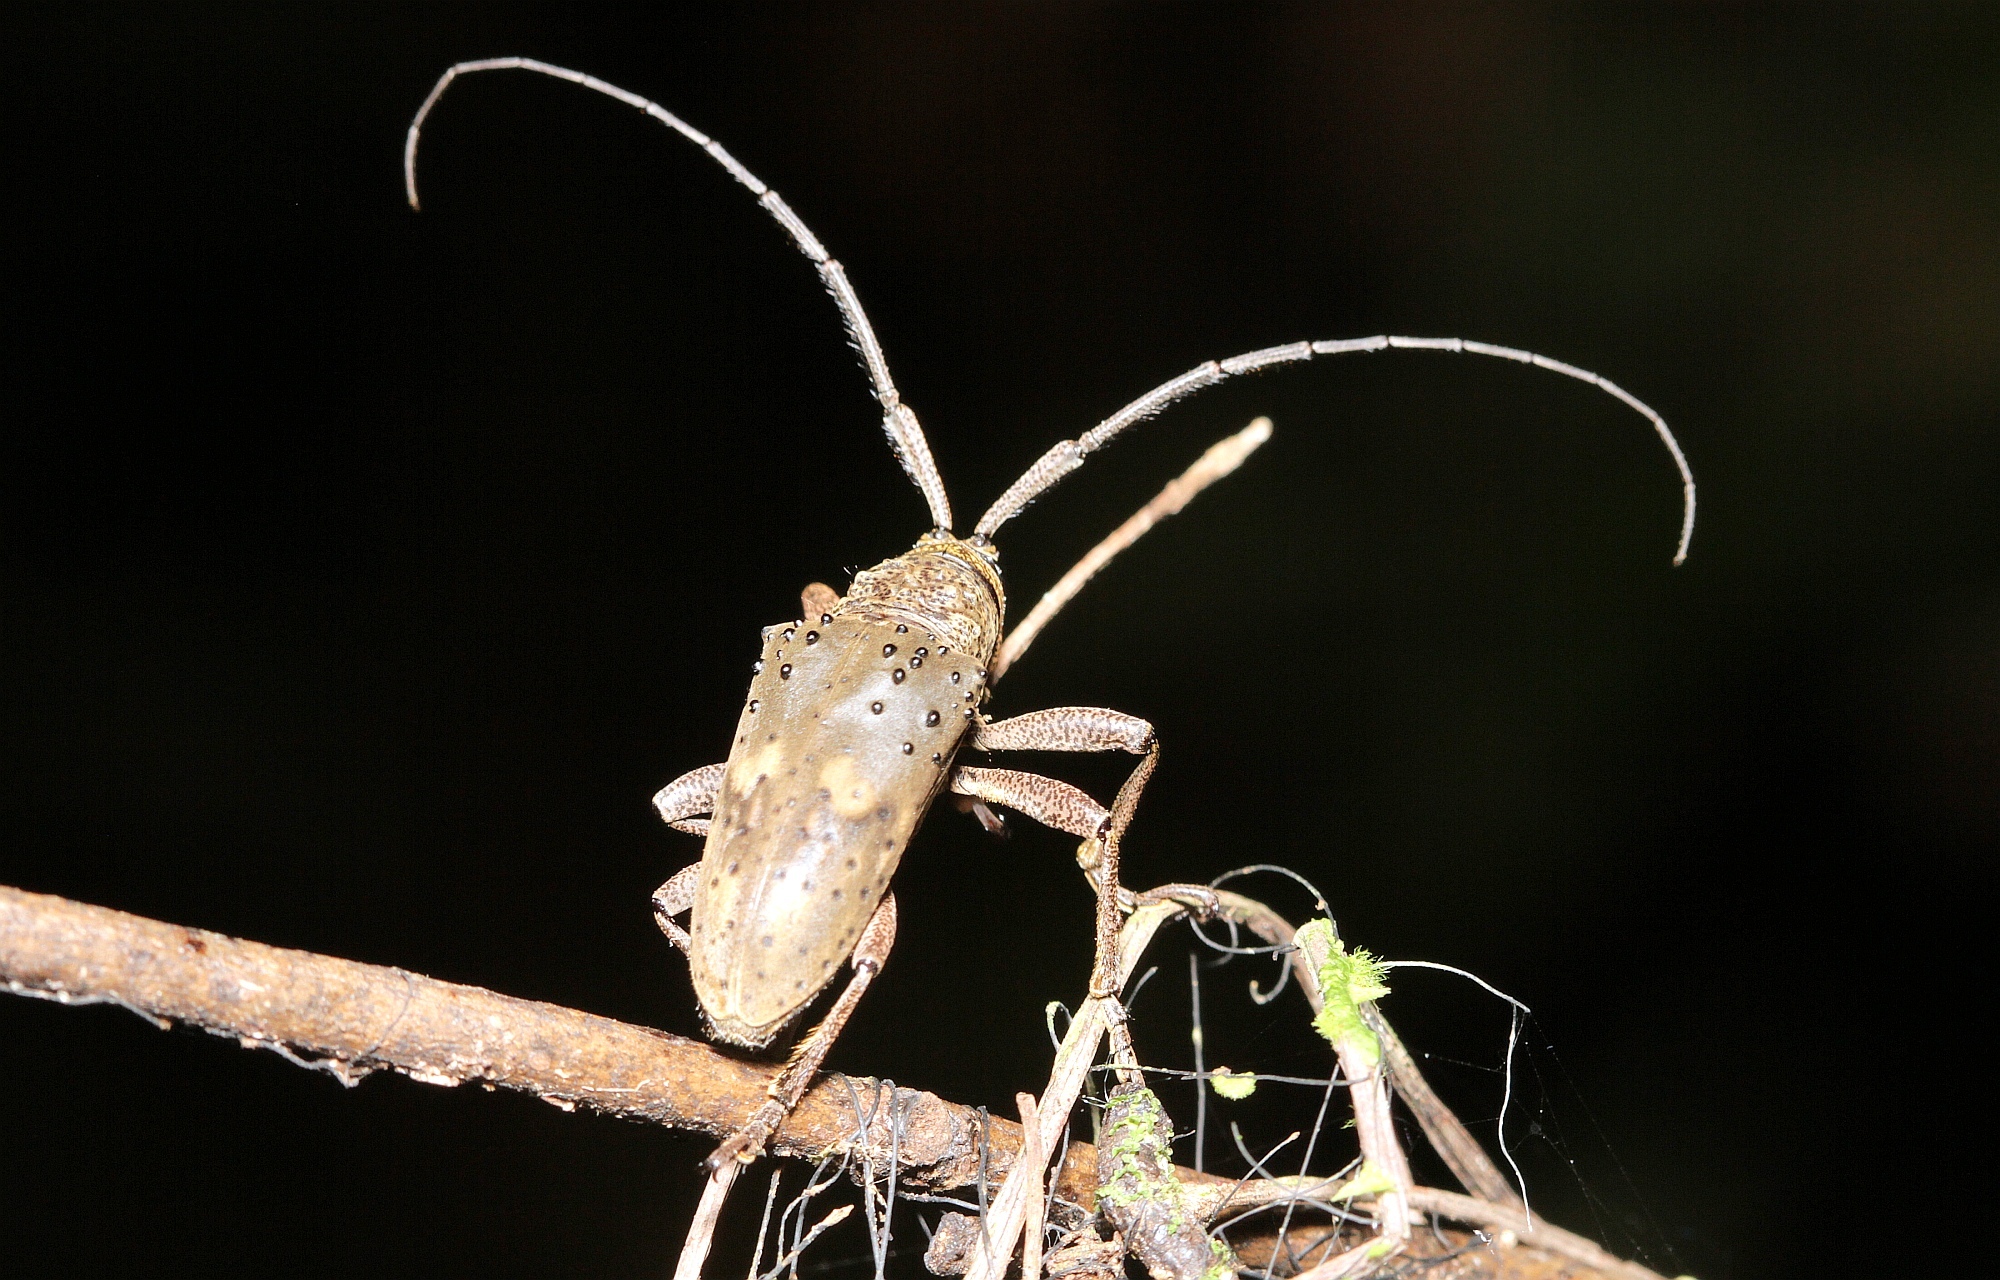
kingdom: Animalia
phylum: Arthropoda
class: Insecta
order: Coleoptera
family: Cerambycidae
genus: Jamesia
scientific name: Jamesia globifera
